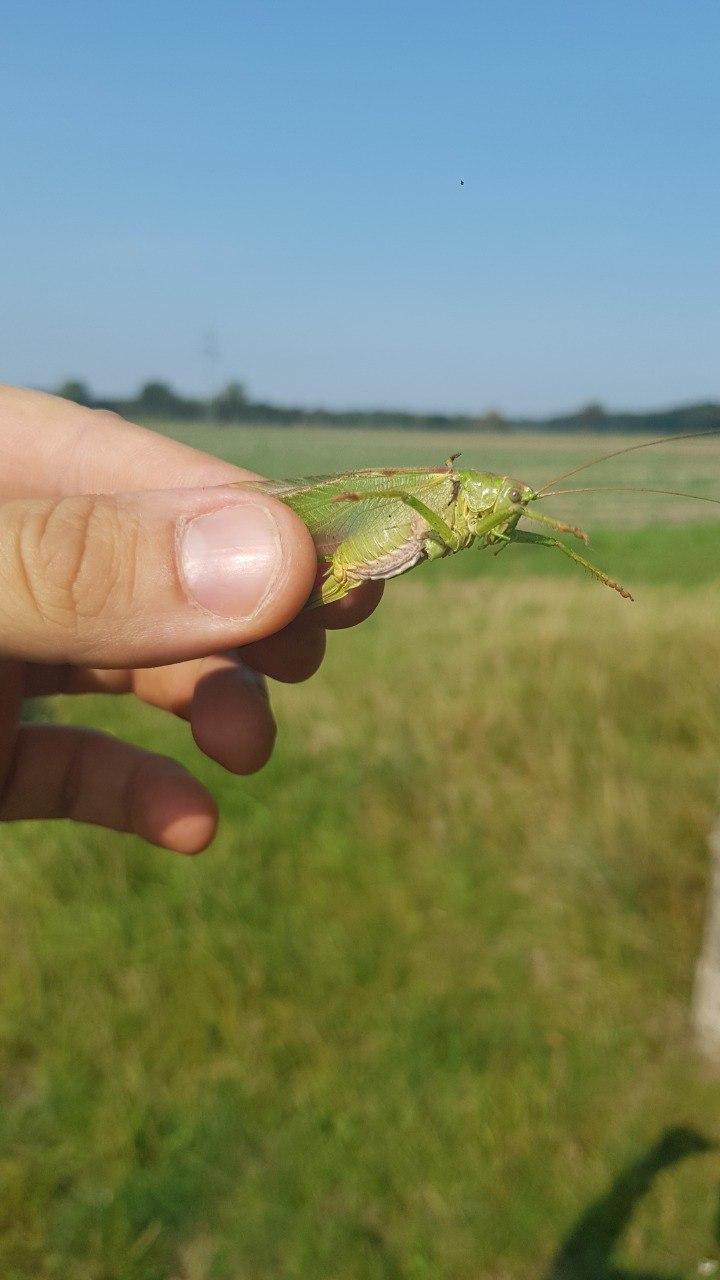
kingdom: Animalia
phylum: Arthropoda
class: Insecta
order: Orthoptera
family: Tettigoniidae
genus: Tettigonia
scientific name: Tettigonia viridissima
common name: Great green bush-cricket
